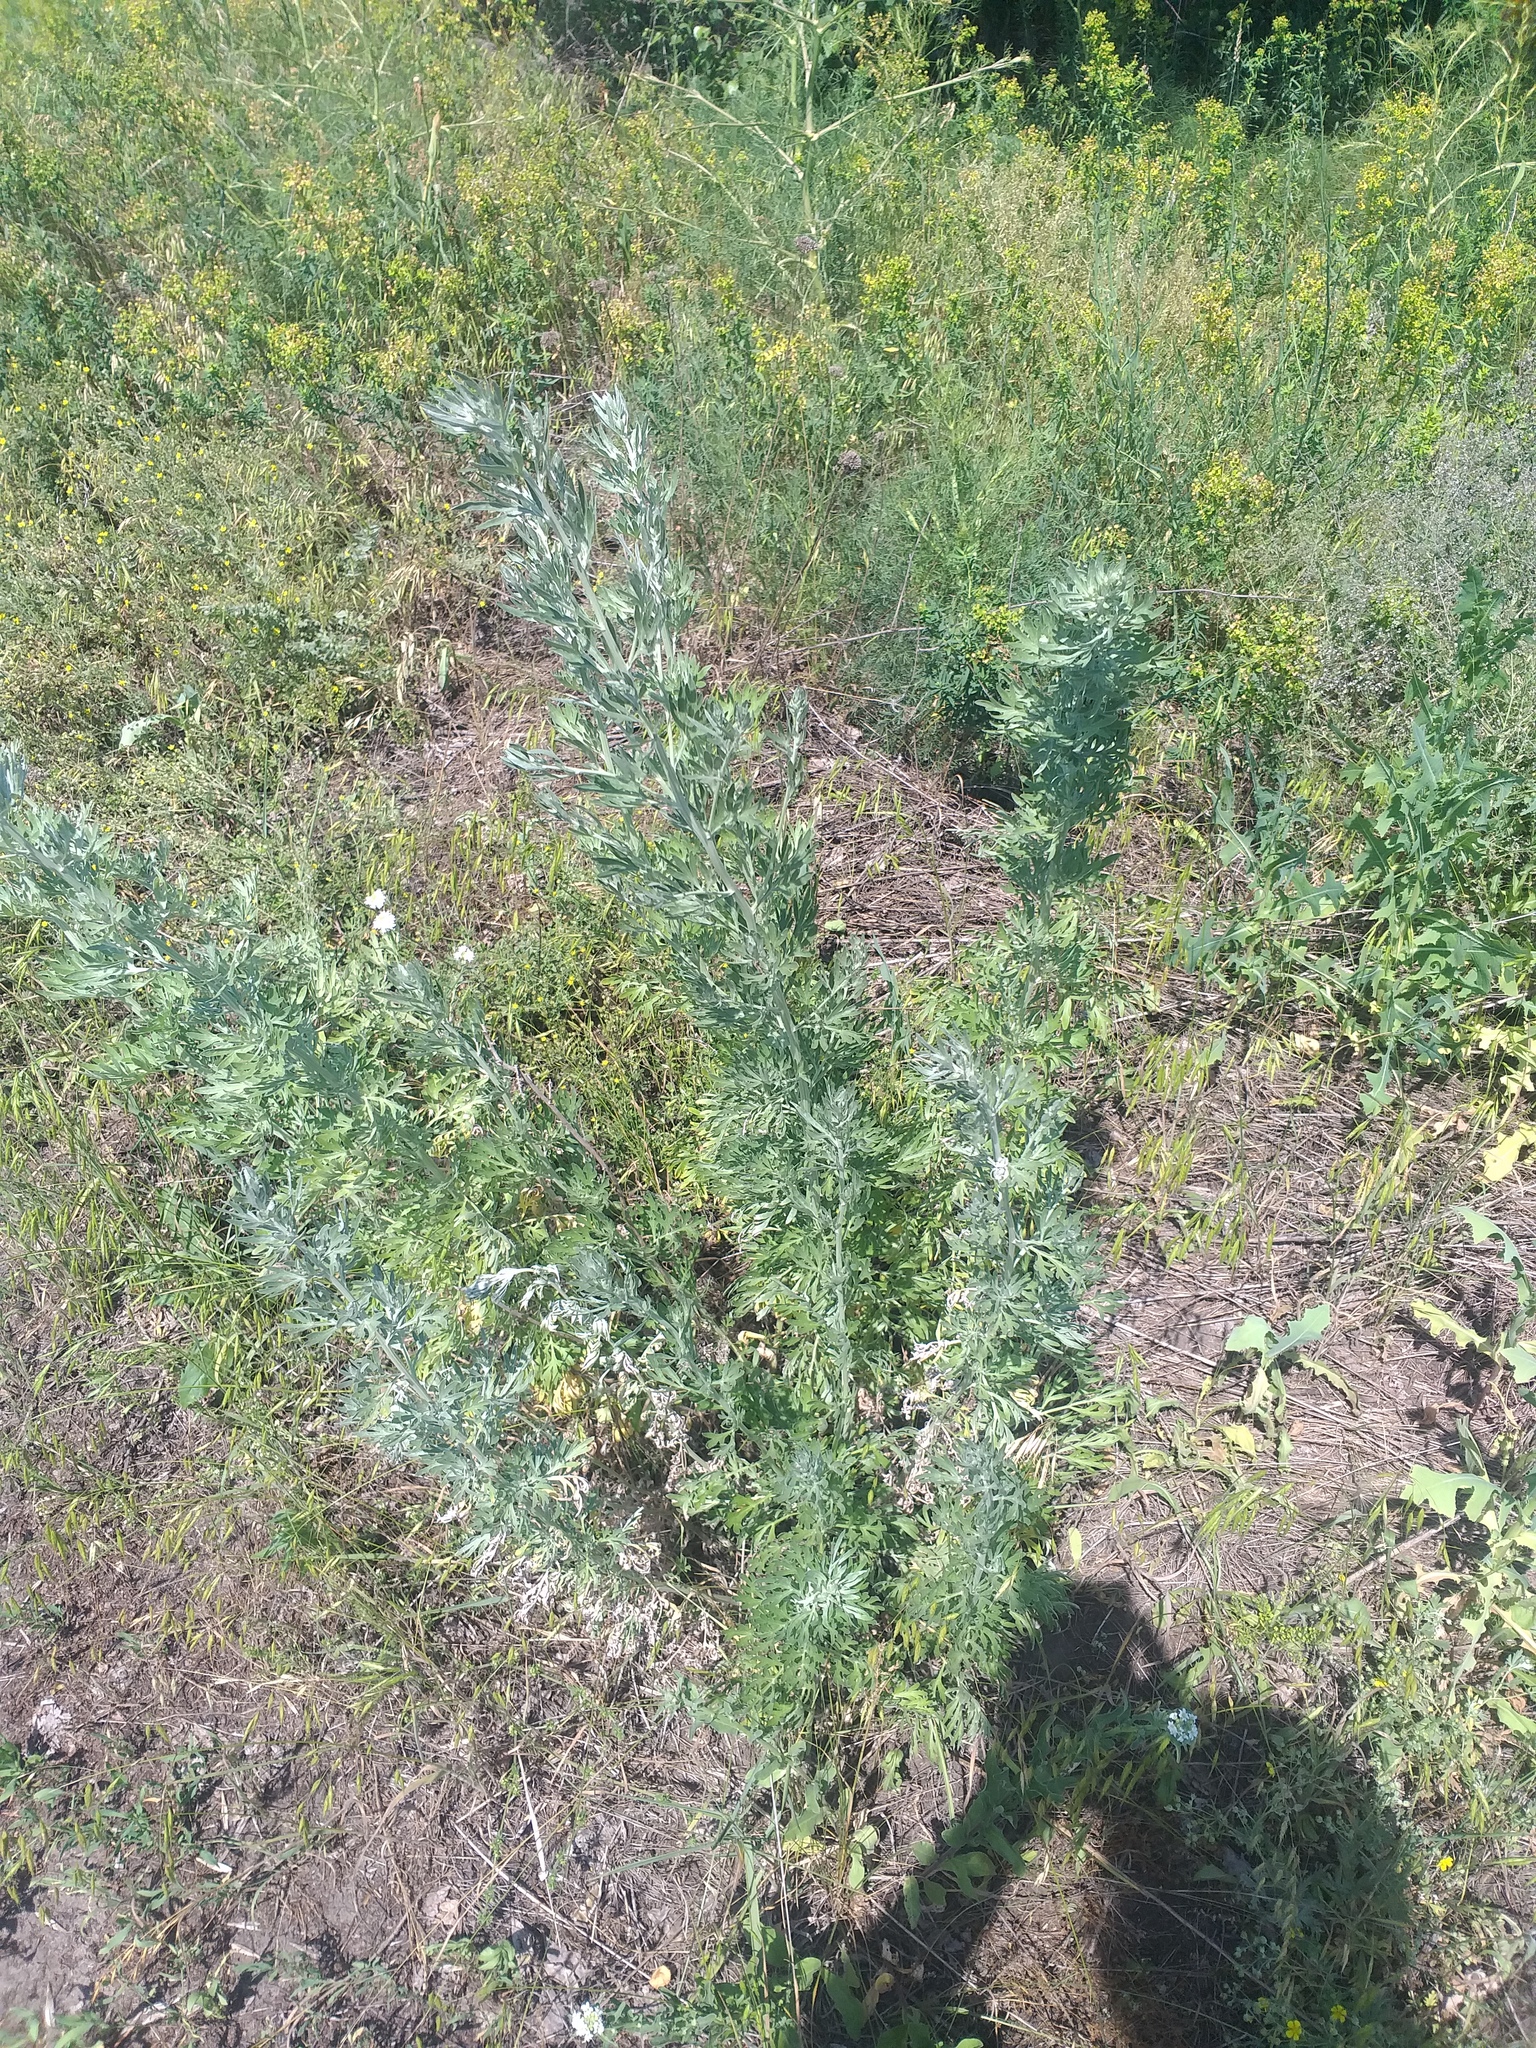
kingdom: Plantae
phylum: Tracheophyta
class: Magnoliopsida
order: Asterales
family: Asteraceae
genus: Artemisia
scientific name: Artemisia absinthium
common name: Wormwood
